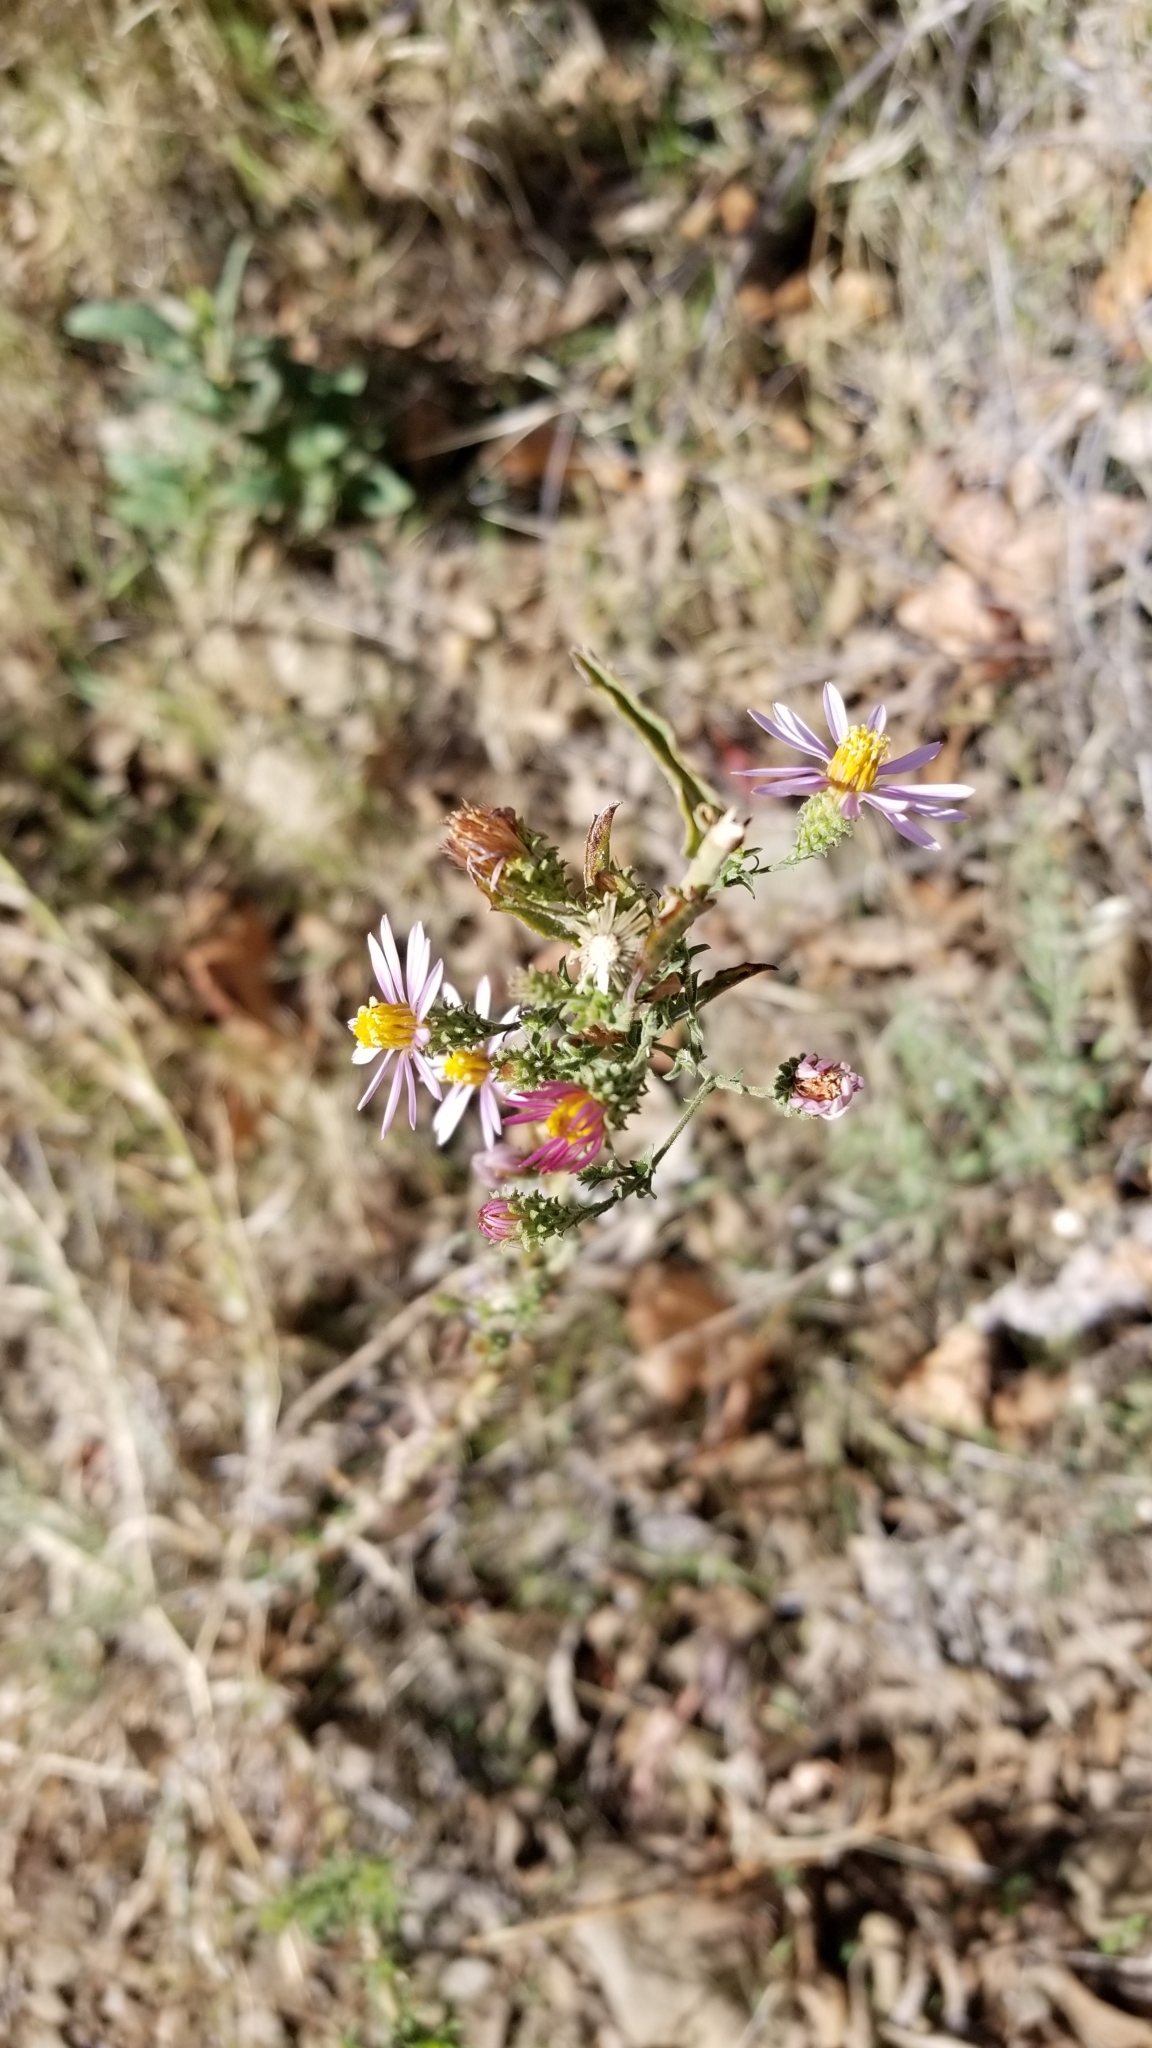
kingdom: Plantae
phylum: Tracheophyta
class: Magnoliopsida
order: Asterales
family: Asteraceae
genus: Corethrogyne
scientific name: Corethrogyne filaginifolia
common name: Sand-aster
